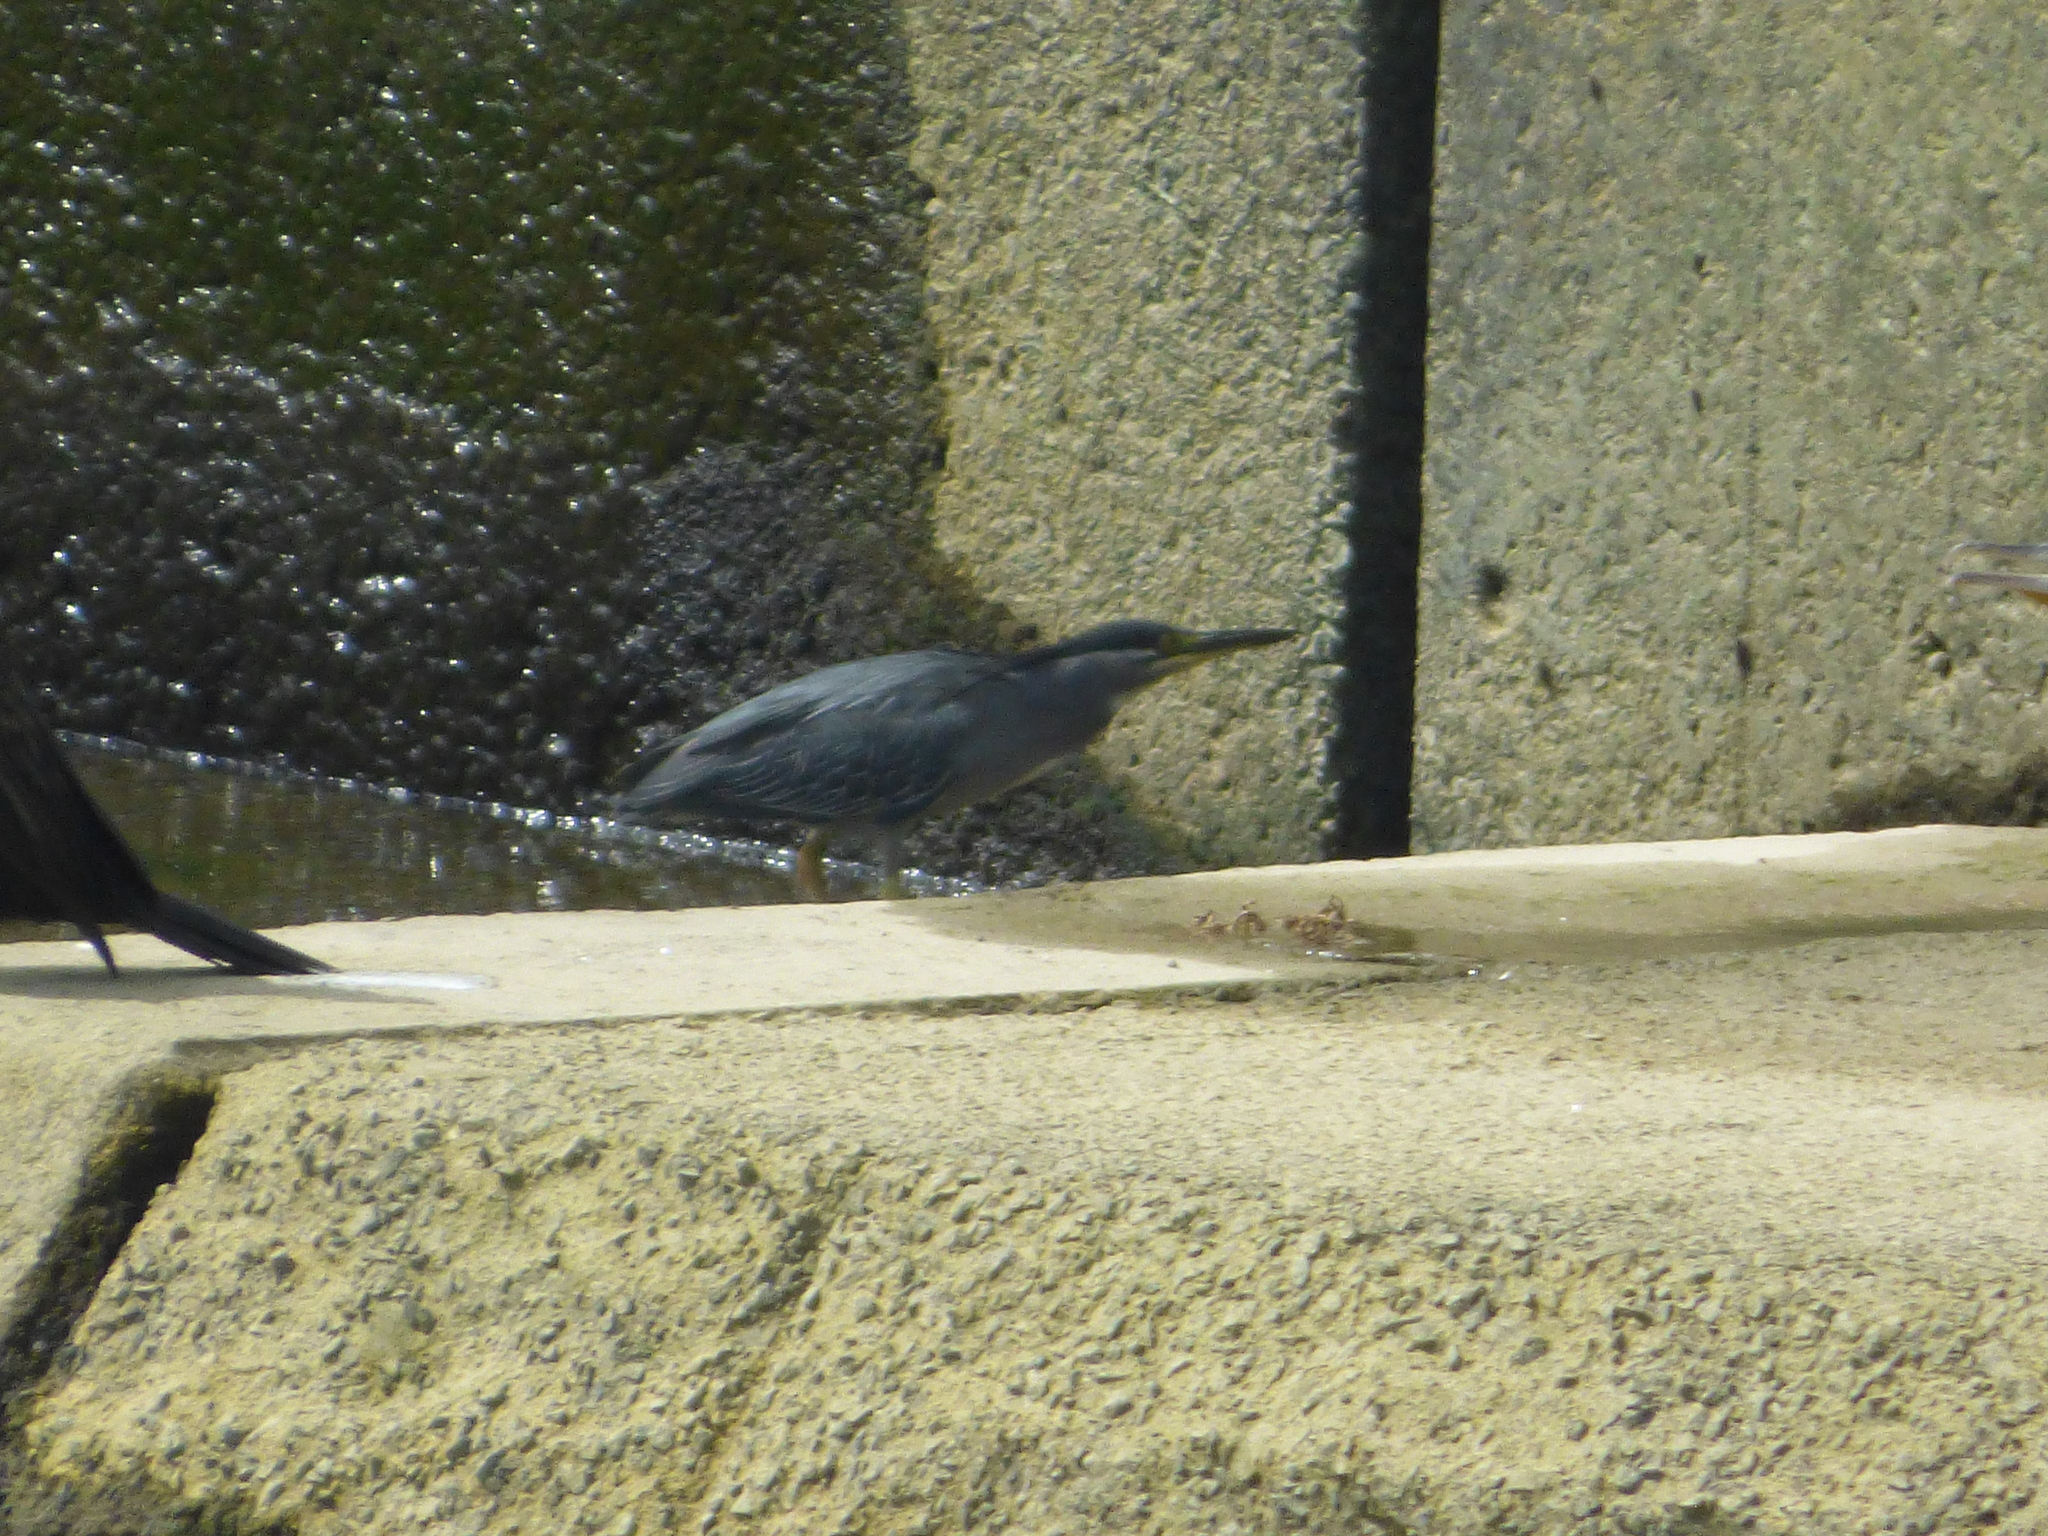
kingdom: Animalia
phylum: Chordata
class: Aves
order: Pelecaniformes
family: Ardeidae
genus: Butorides
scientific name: Butorides striata
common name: Striated heron
